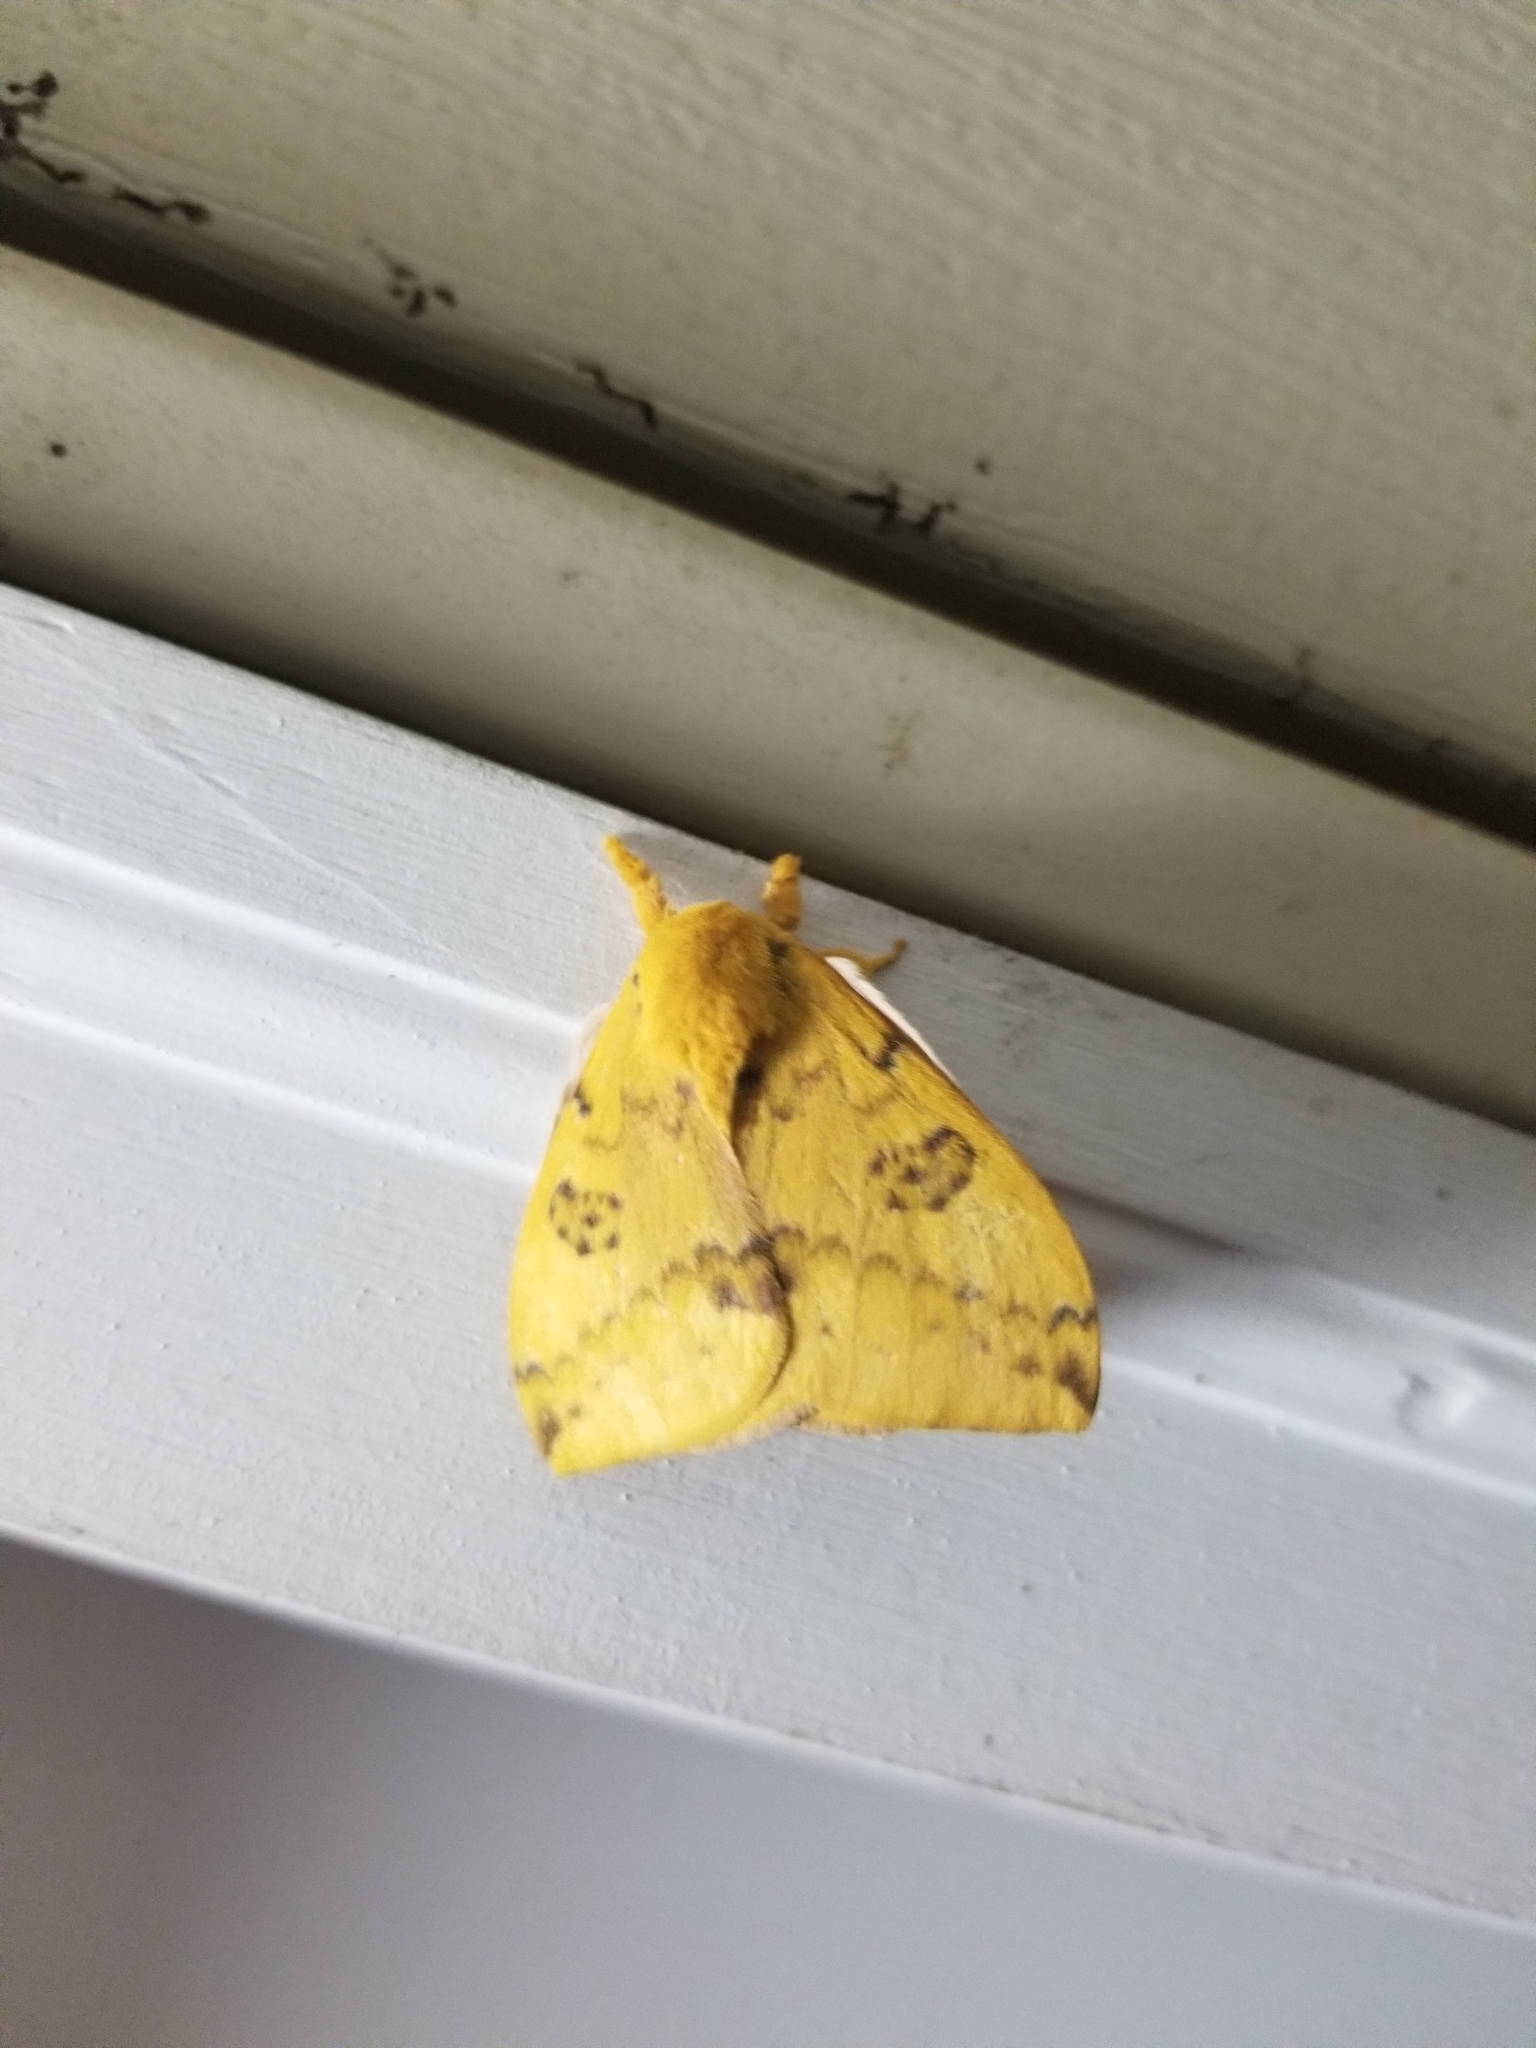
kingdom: Animalia
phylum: Arthropoda
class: Insecta
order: Lepidoptera
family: Saturniidae
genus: Automeris
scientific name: Automeris io
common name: Io moth
